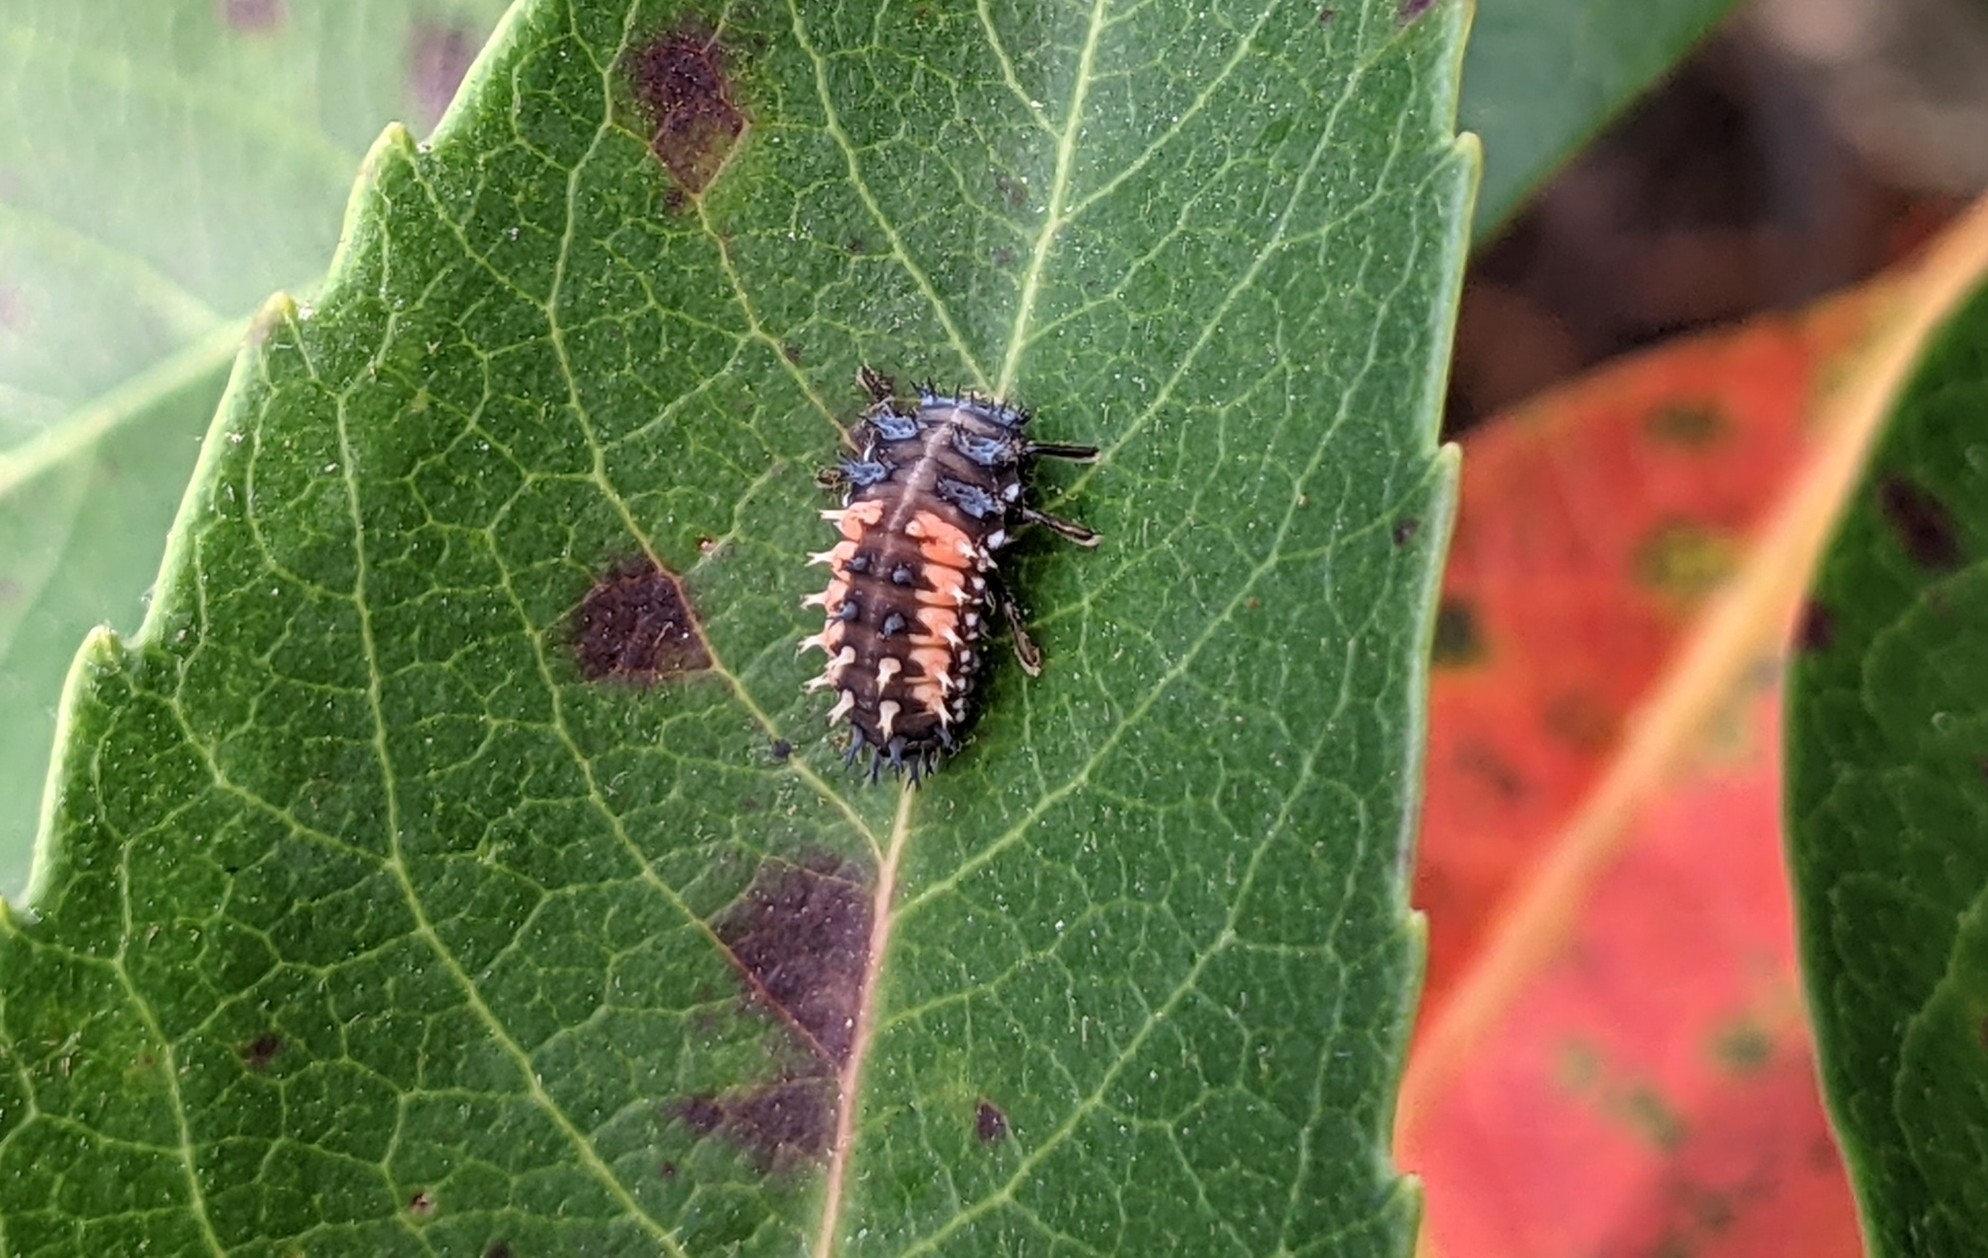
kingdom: Animalia
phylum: Arthropoda
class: Insecta
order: Coleoptera
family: Coccinellidae
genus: Harmonia
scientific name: Harmonia axyridis
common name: Harlequin ladybird
